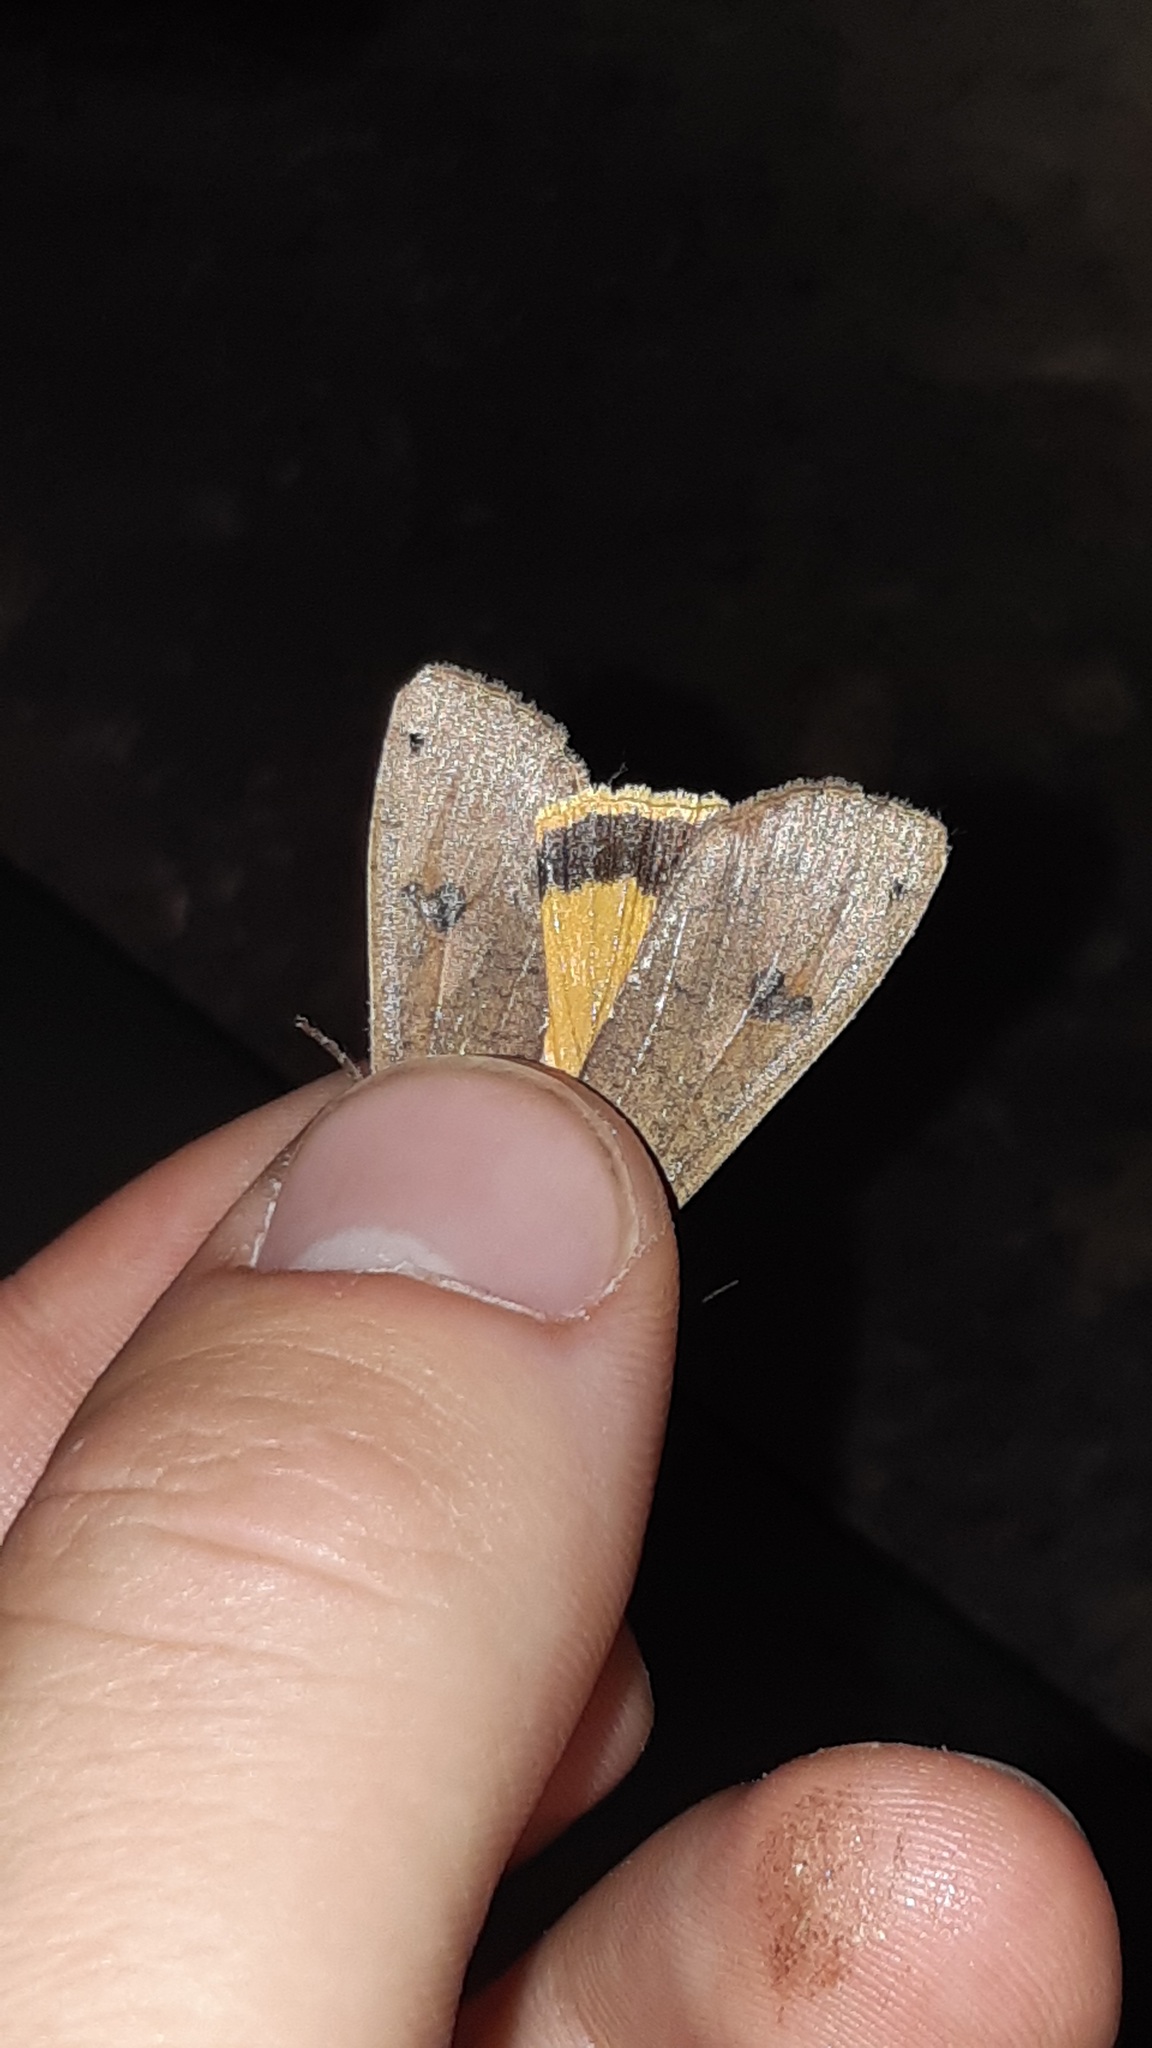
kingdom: Animalia
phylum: Arthropoda
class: Insecta
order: Lepidoptera
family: Noctuidae
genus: Noctua
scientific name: Noctua pronuba
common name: Large yellow underwing
